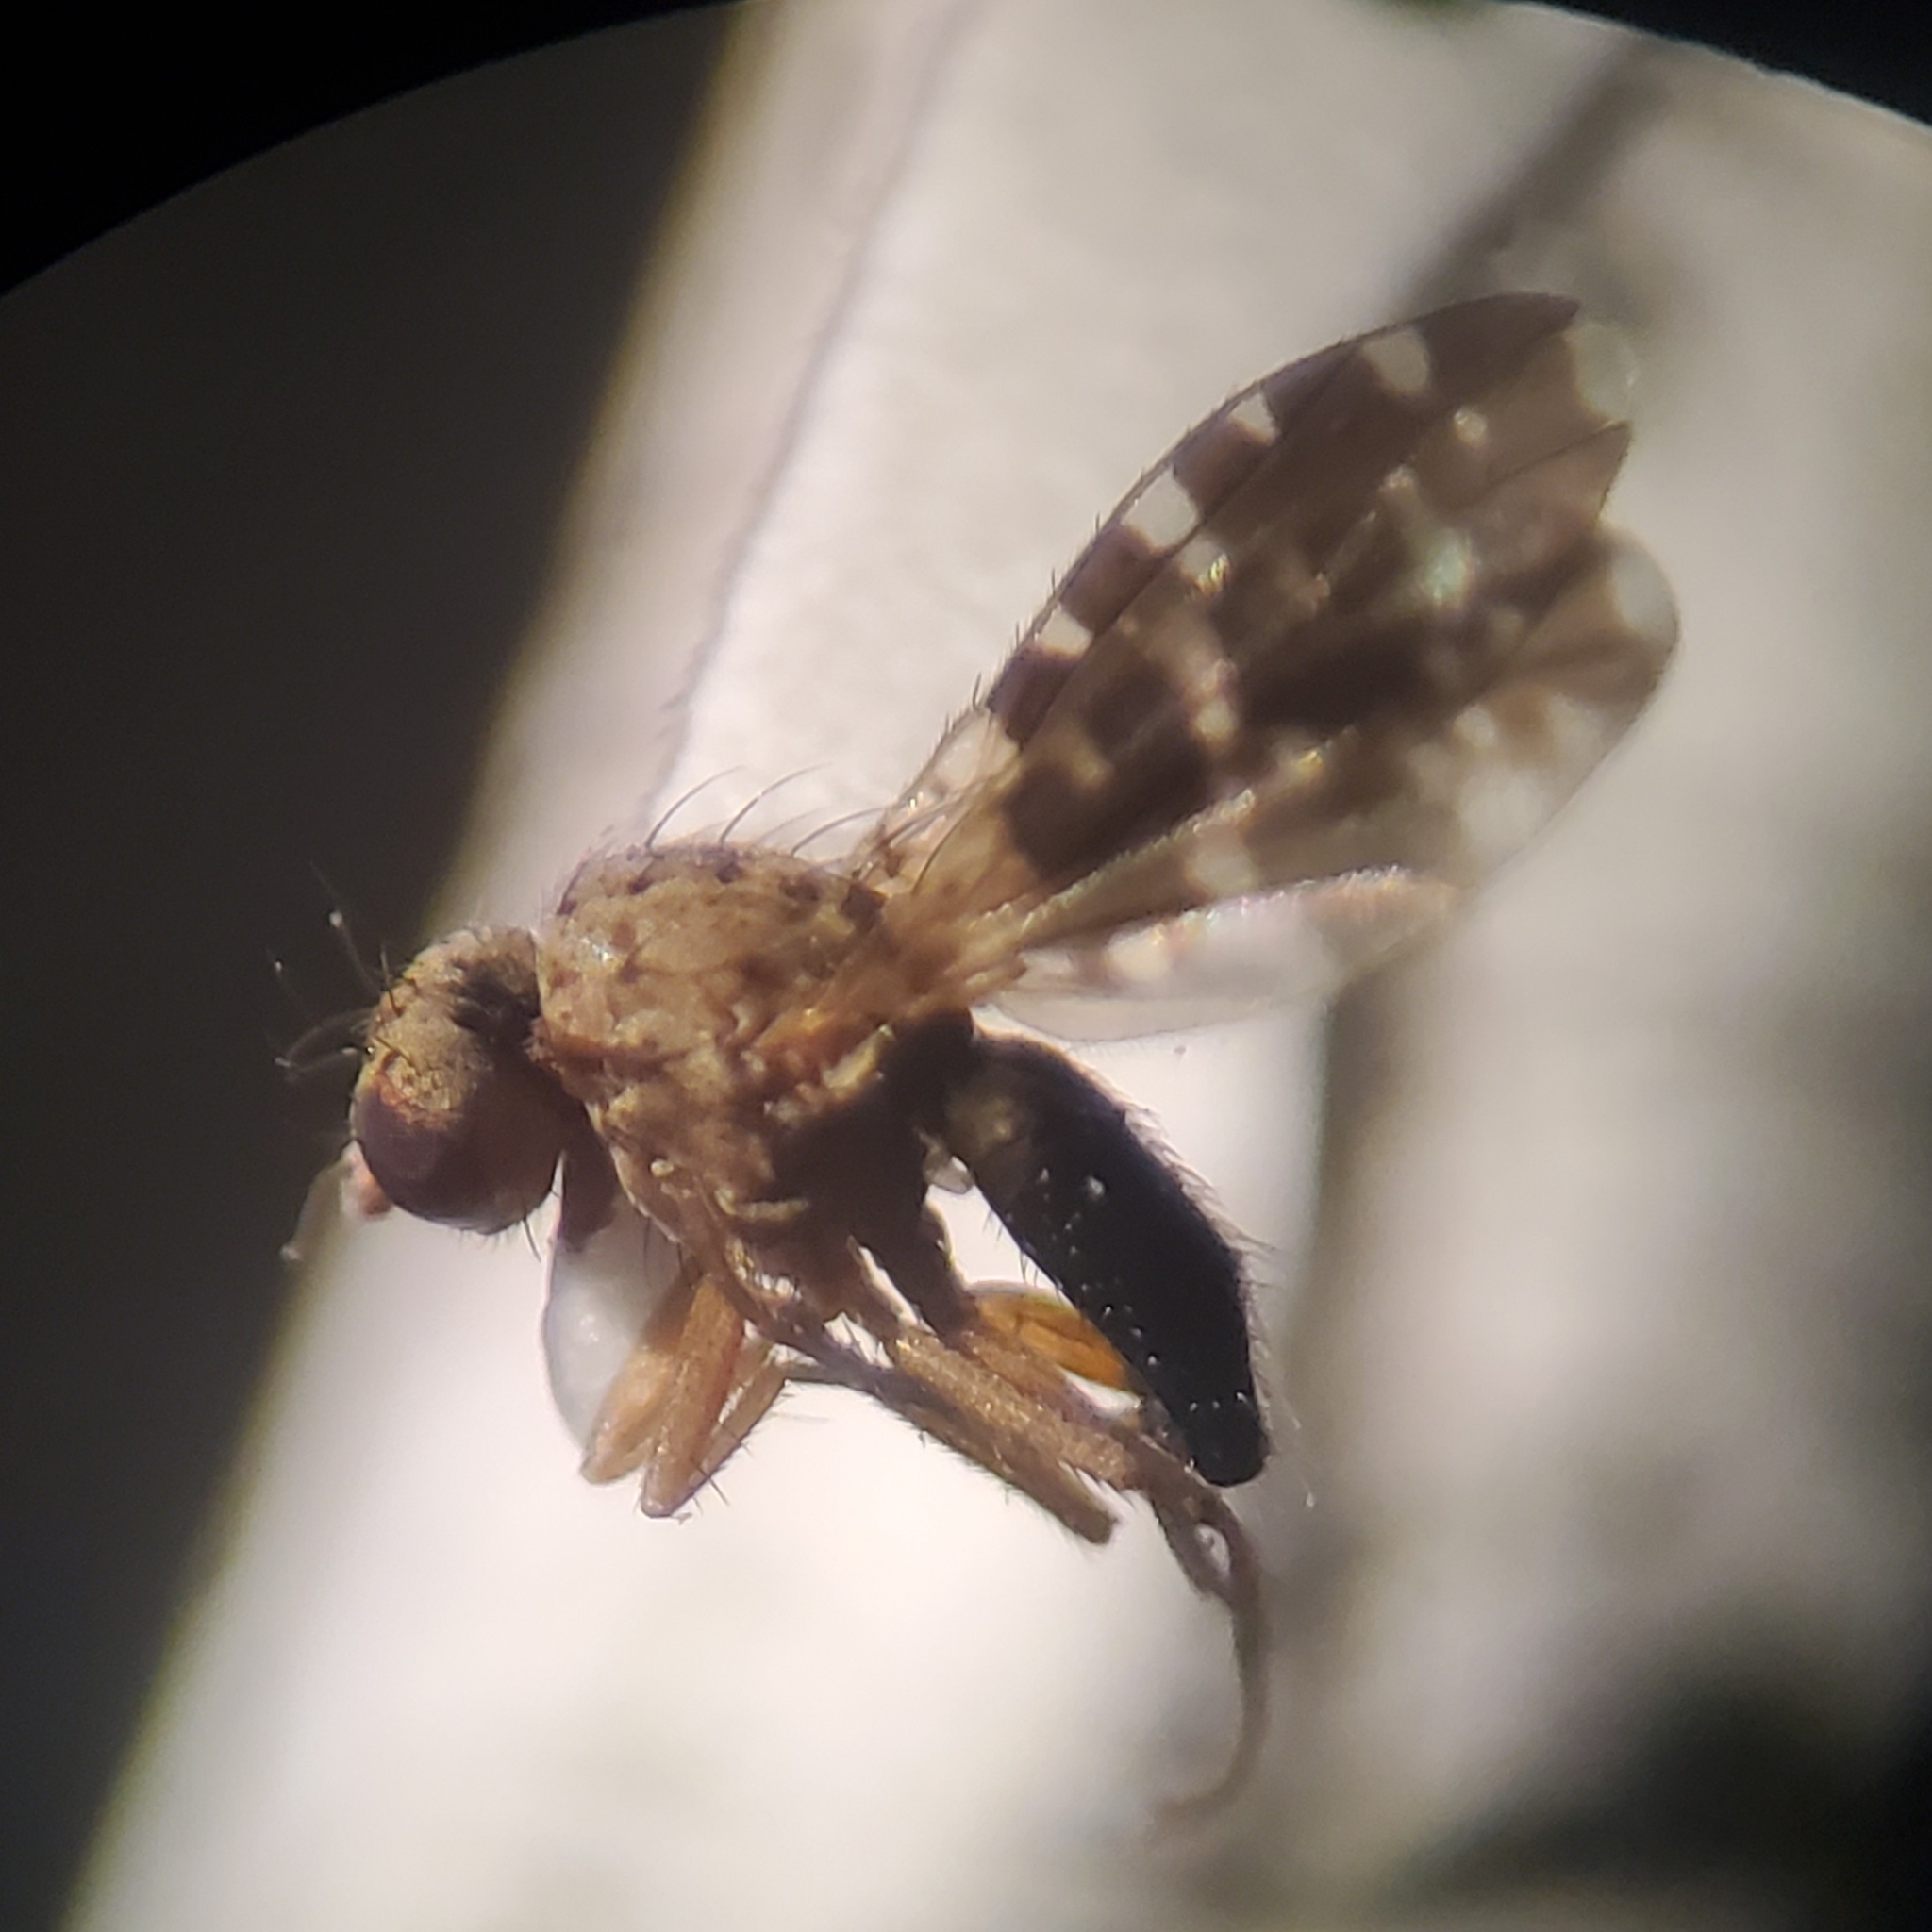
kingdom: Animalia
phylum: Arthropoda
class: Insecta
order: Diptera
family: Heleomyzidae
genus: Trixoscelis
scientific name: Trixoscelis polita
